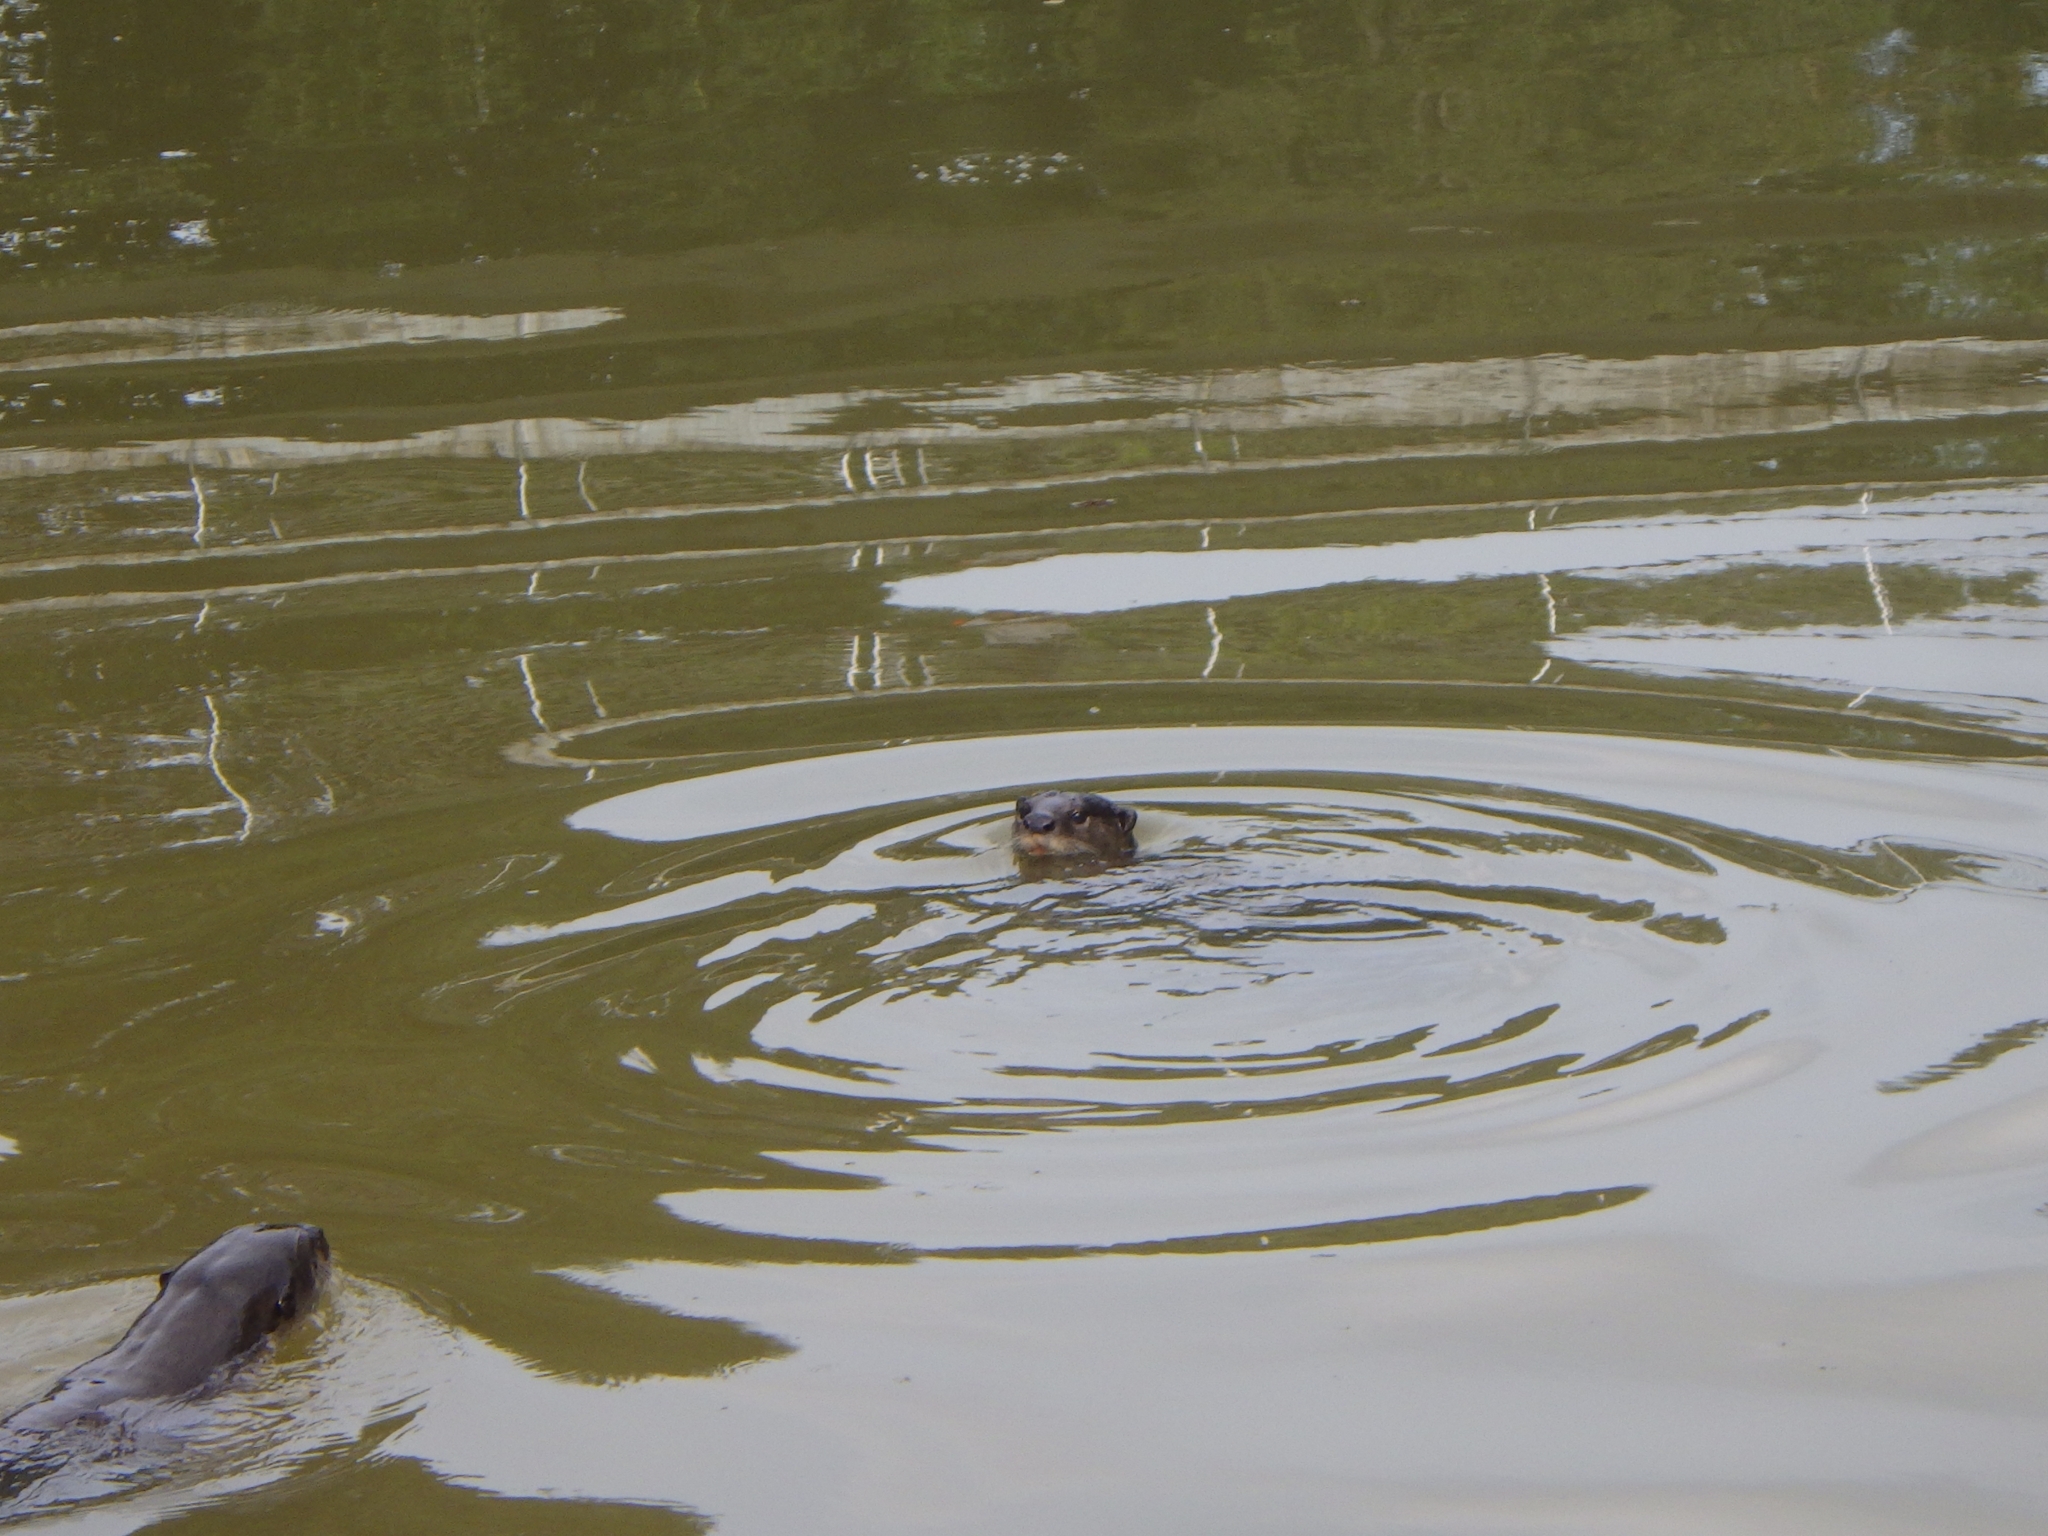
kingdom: Animalia
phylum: Chordata
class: Mammalia
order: Carnivora
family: Mustelidae
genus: Lutrogale
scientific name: Lutrogale perspicillata
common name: Smooth-coated otter
